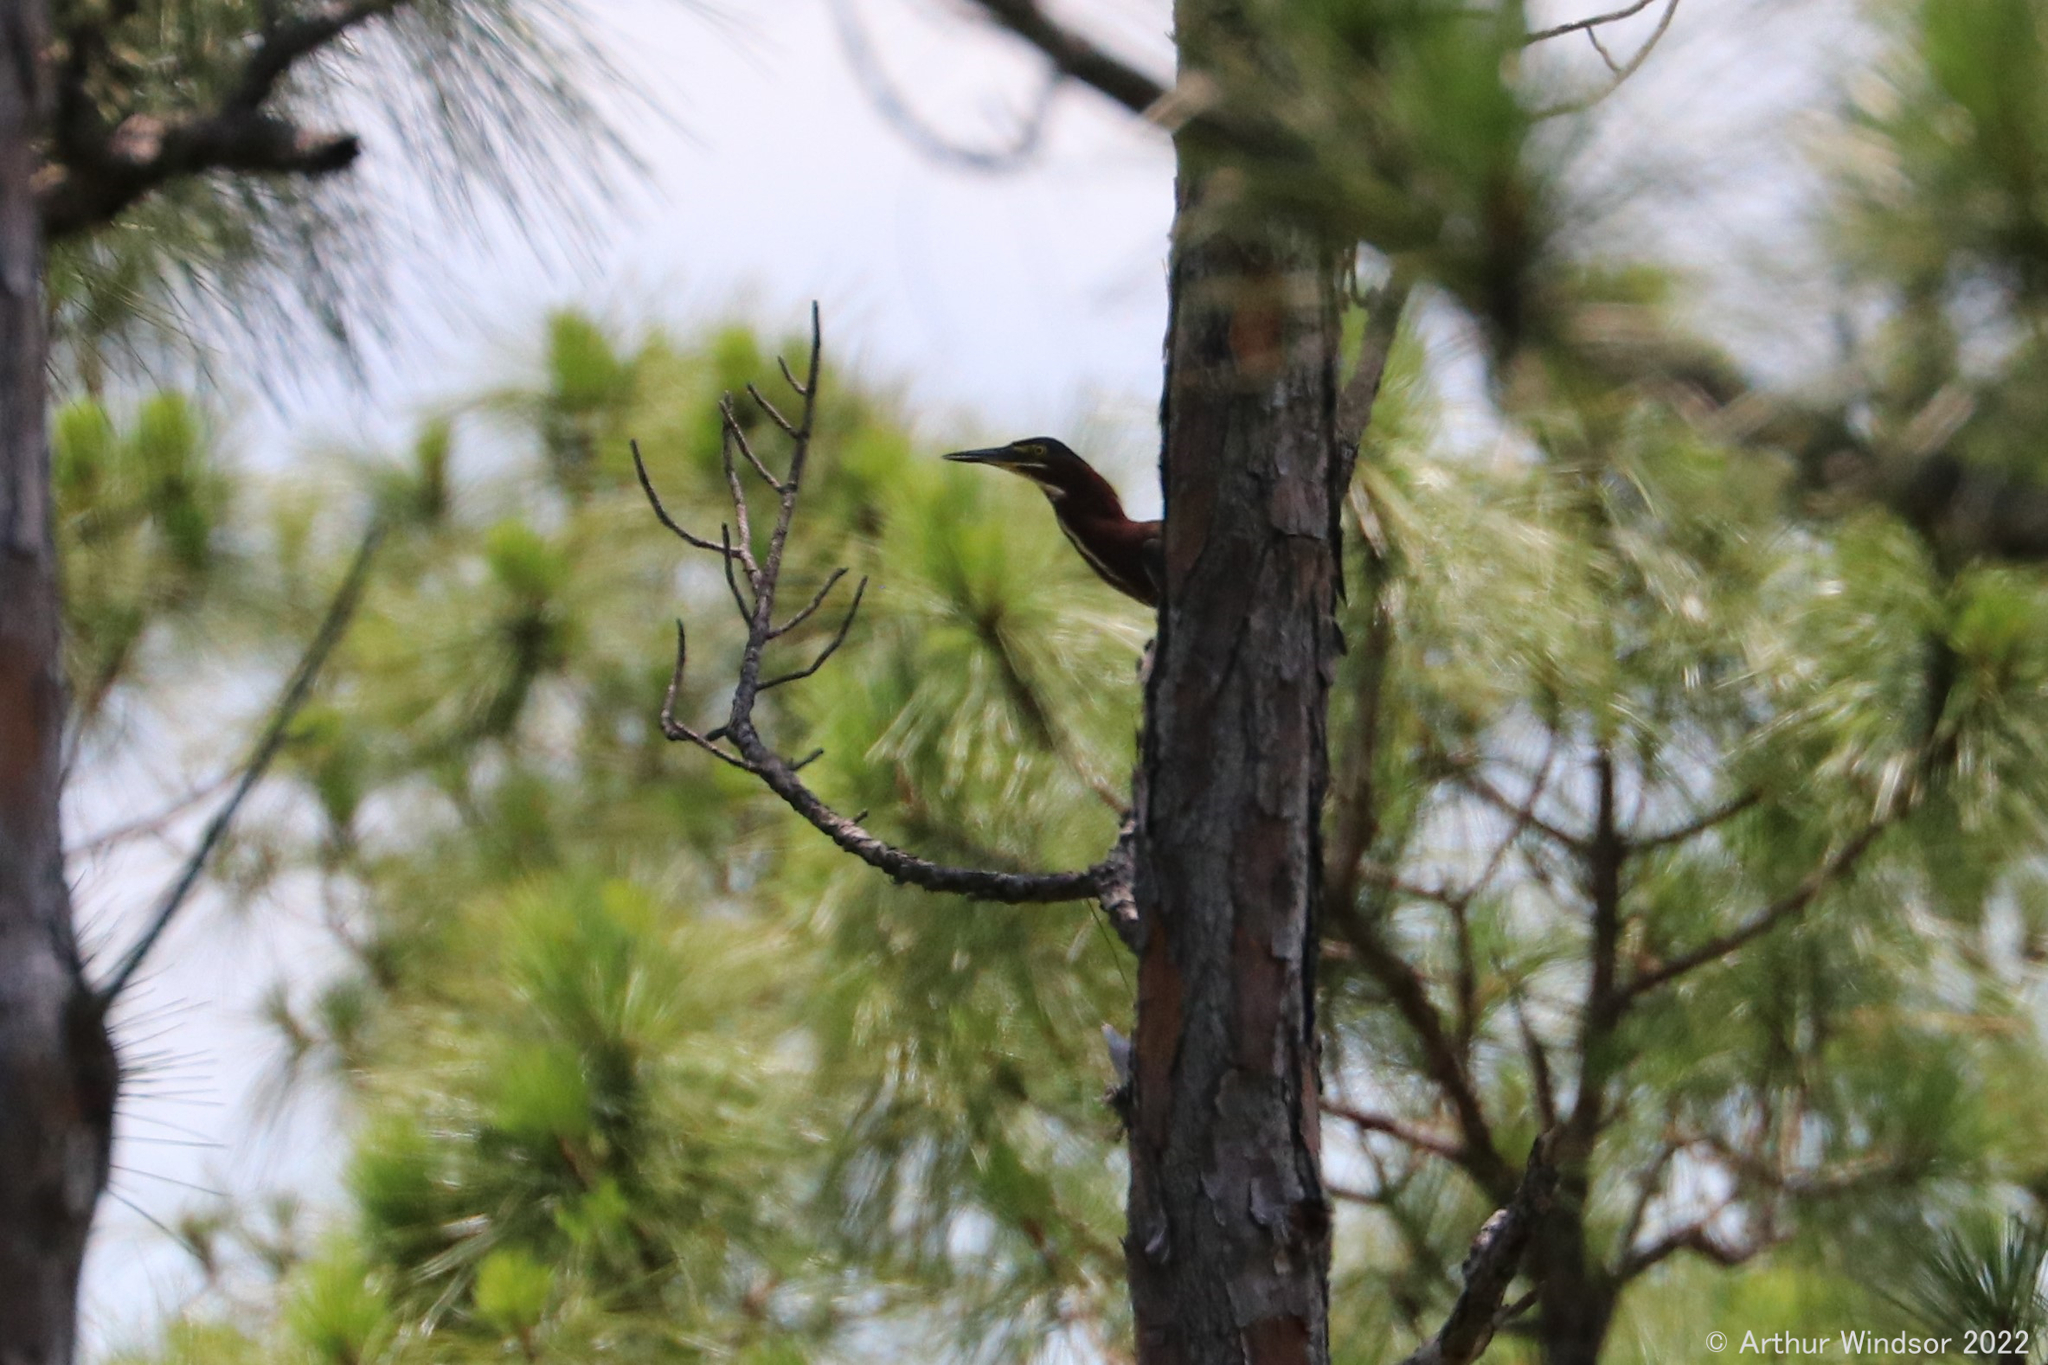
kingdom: Animalia
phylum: Chordata
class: Aves
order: Pelecaniformes
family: Ardeidae
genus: Butorides
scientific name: Butorides virescens
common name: Green heron
